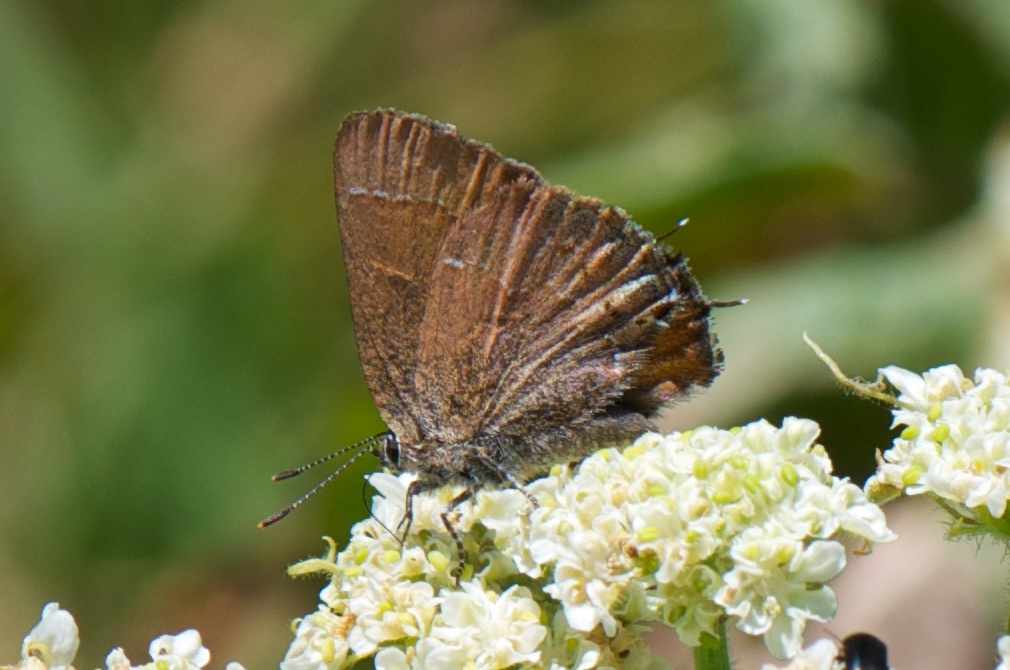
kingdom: Animalia
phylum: Arthropoda
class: Insecta
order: Lepidoptera
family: Lycaenidae
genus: Mitoura
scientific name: Mitoura nelsoni
